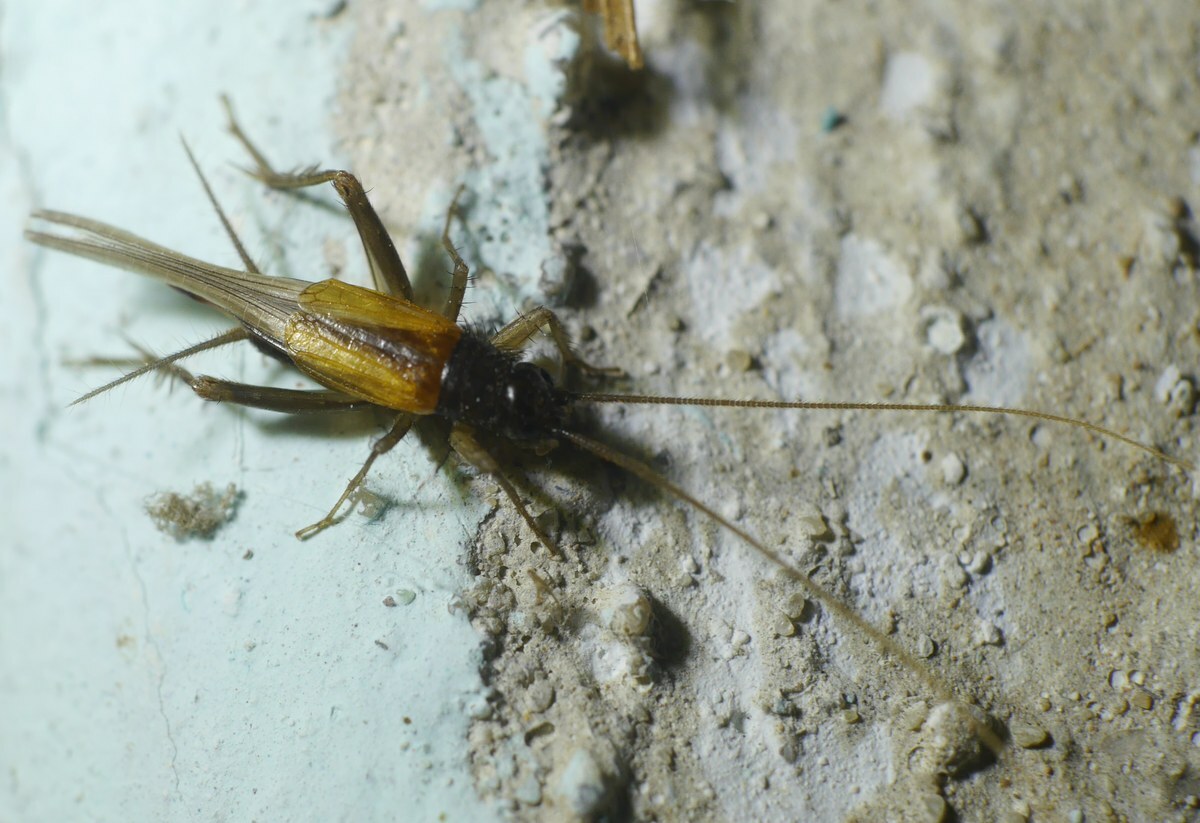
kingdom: Animalia
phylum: Arthropoda
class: Insecta
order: Orthoptera
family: Trigonidiidae
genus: Stenonemobius
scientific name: Stenonemobius bicolor
